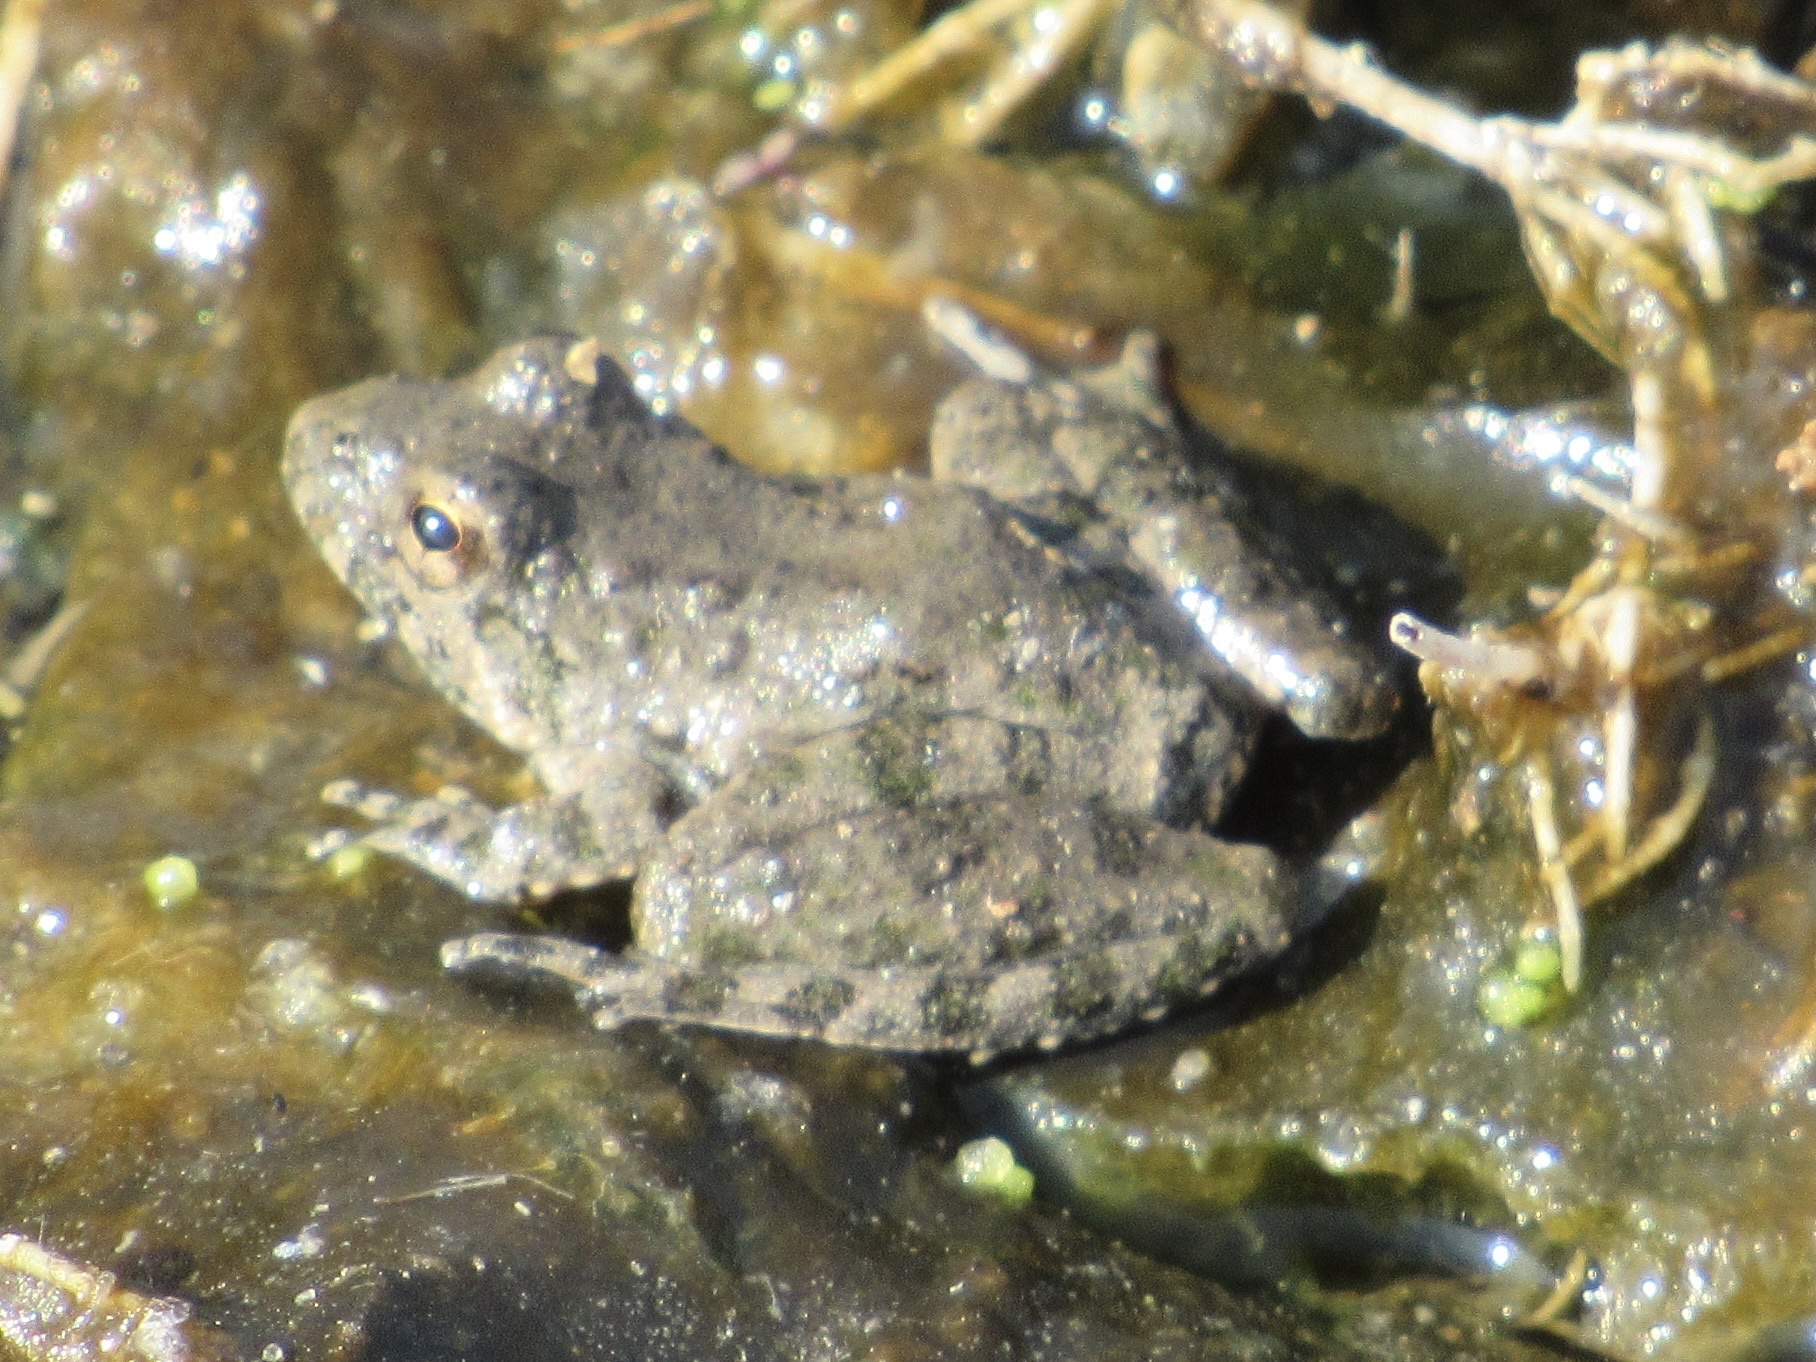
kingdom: Animalia
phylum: Chordata
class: Amphibia
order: Anura
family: Hylidae
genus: Acris
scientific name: Acris blanchardi
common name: Blanchard's cricket frog
